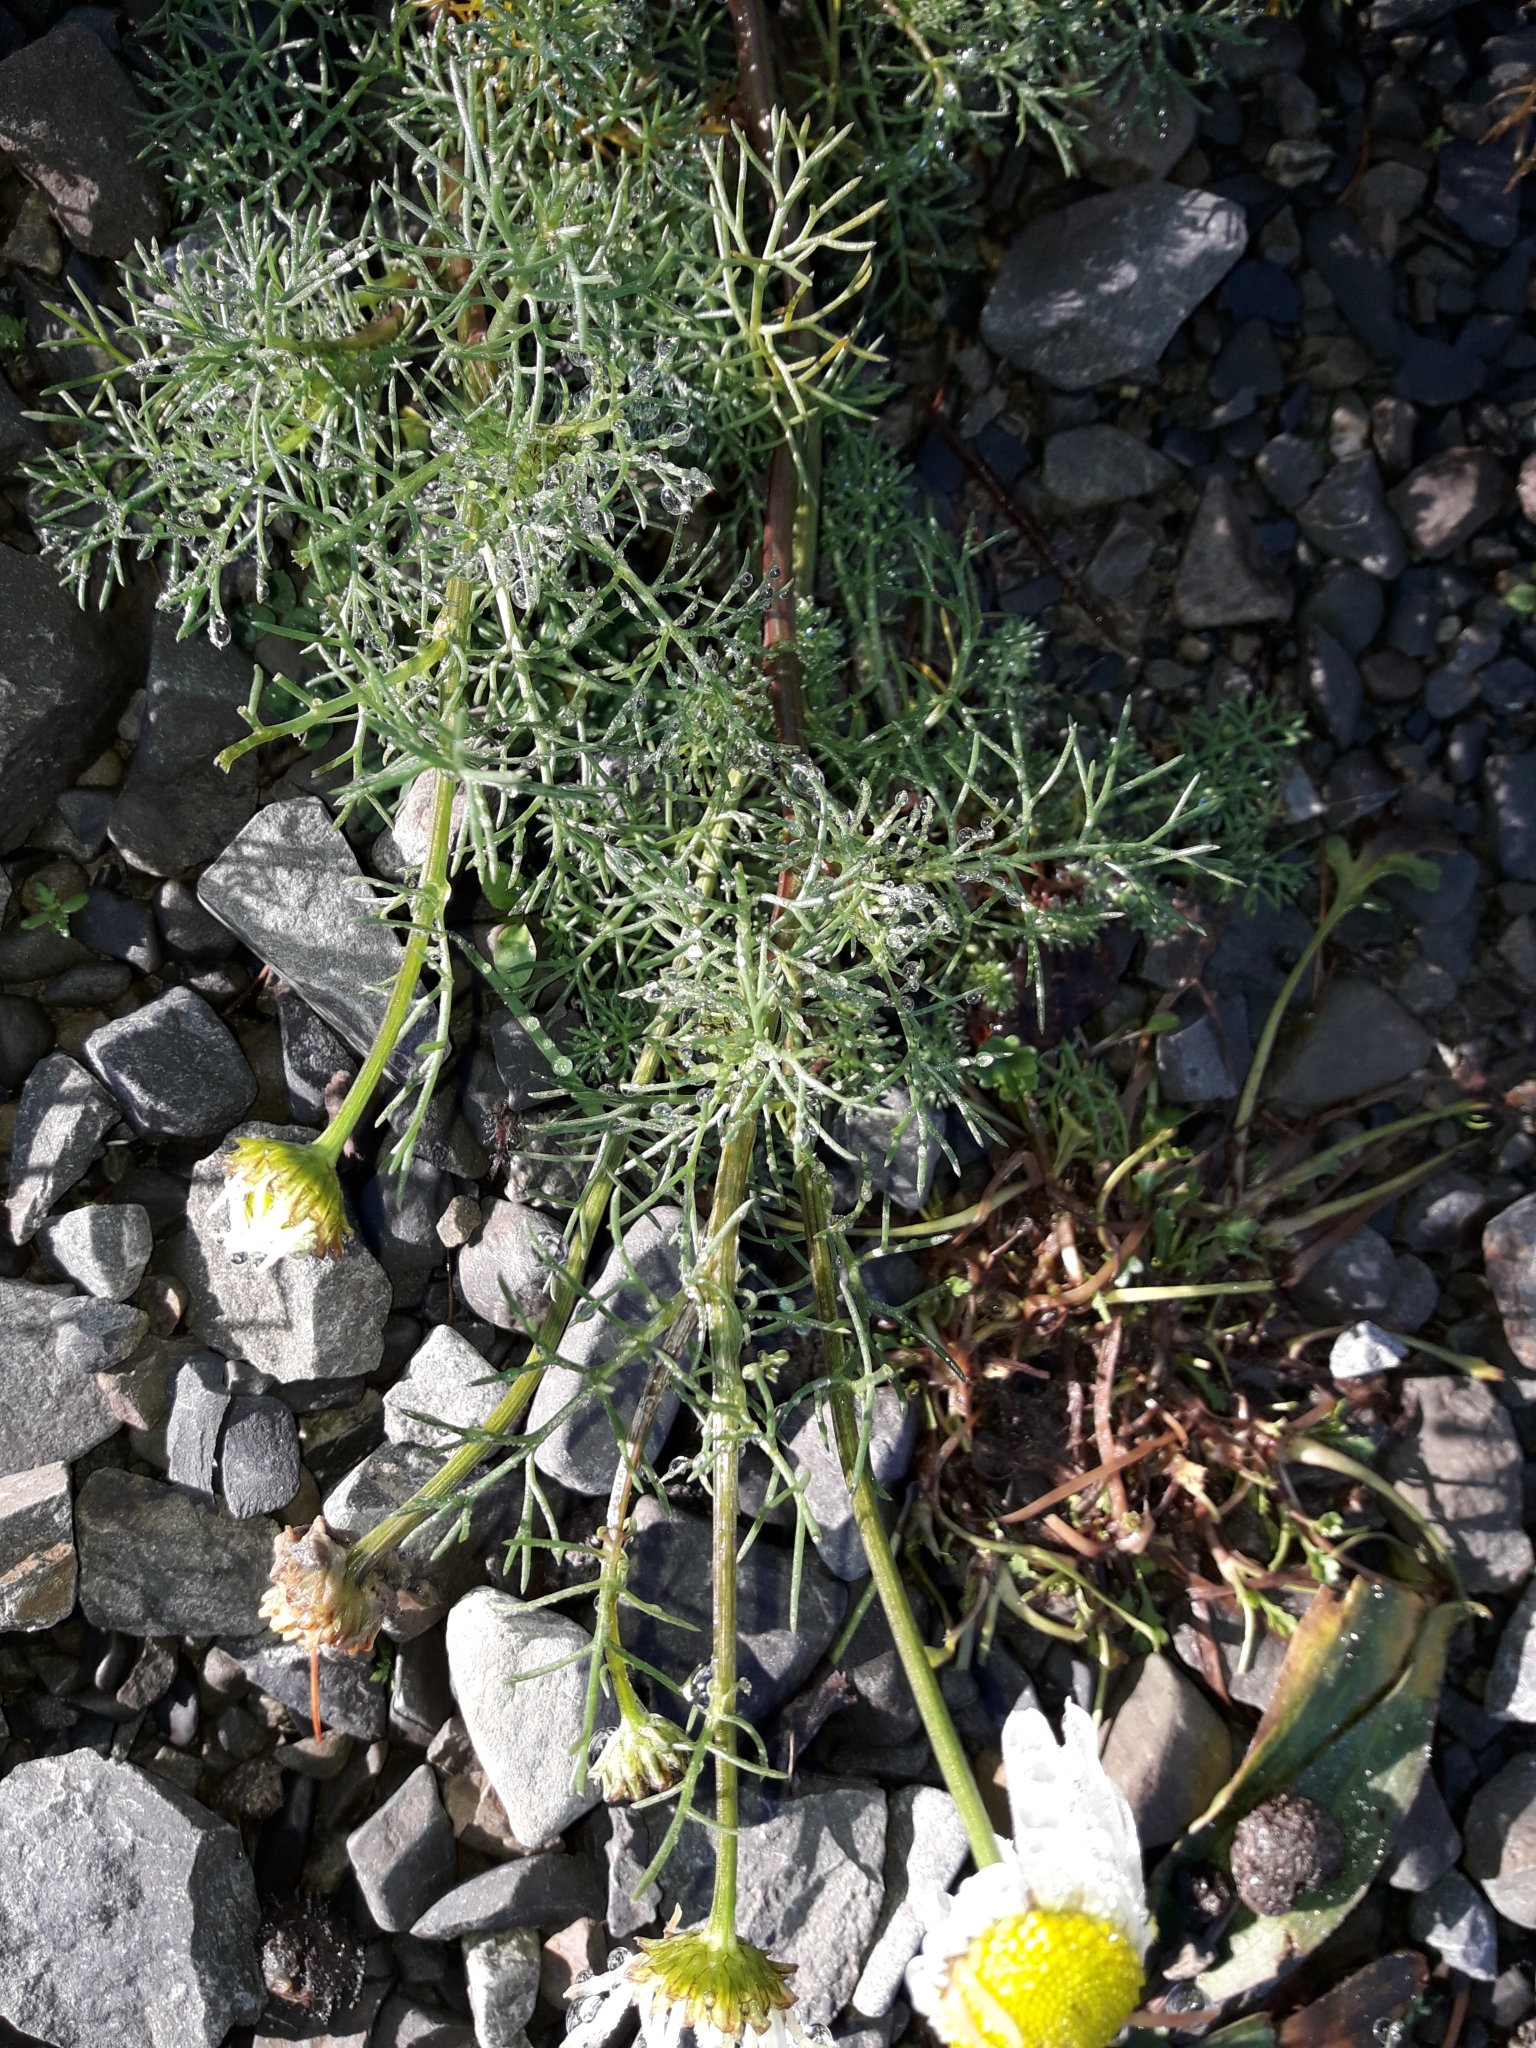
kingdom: Plantae
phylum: Tracheophyta
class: Magnoliopsida
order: Asterales
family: Asteraceae
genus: Tripleurospermum
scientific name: Tripleurospermum inodorum
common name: Scentless mayweed
